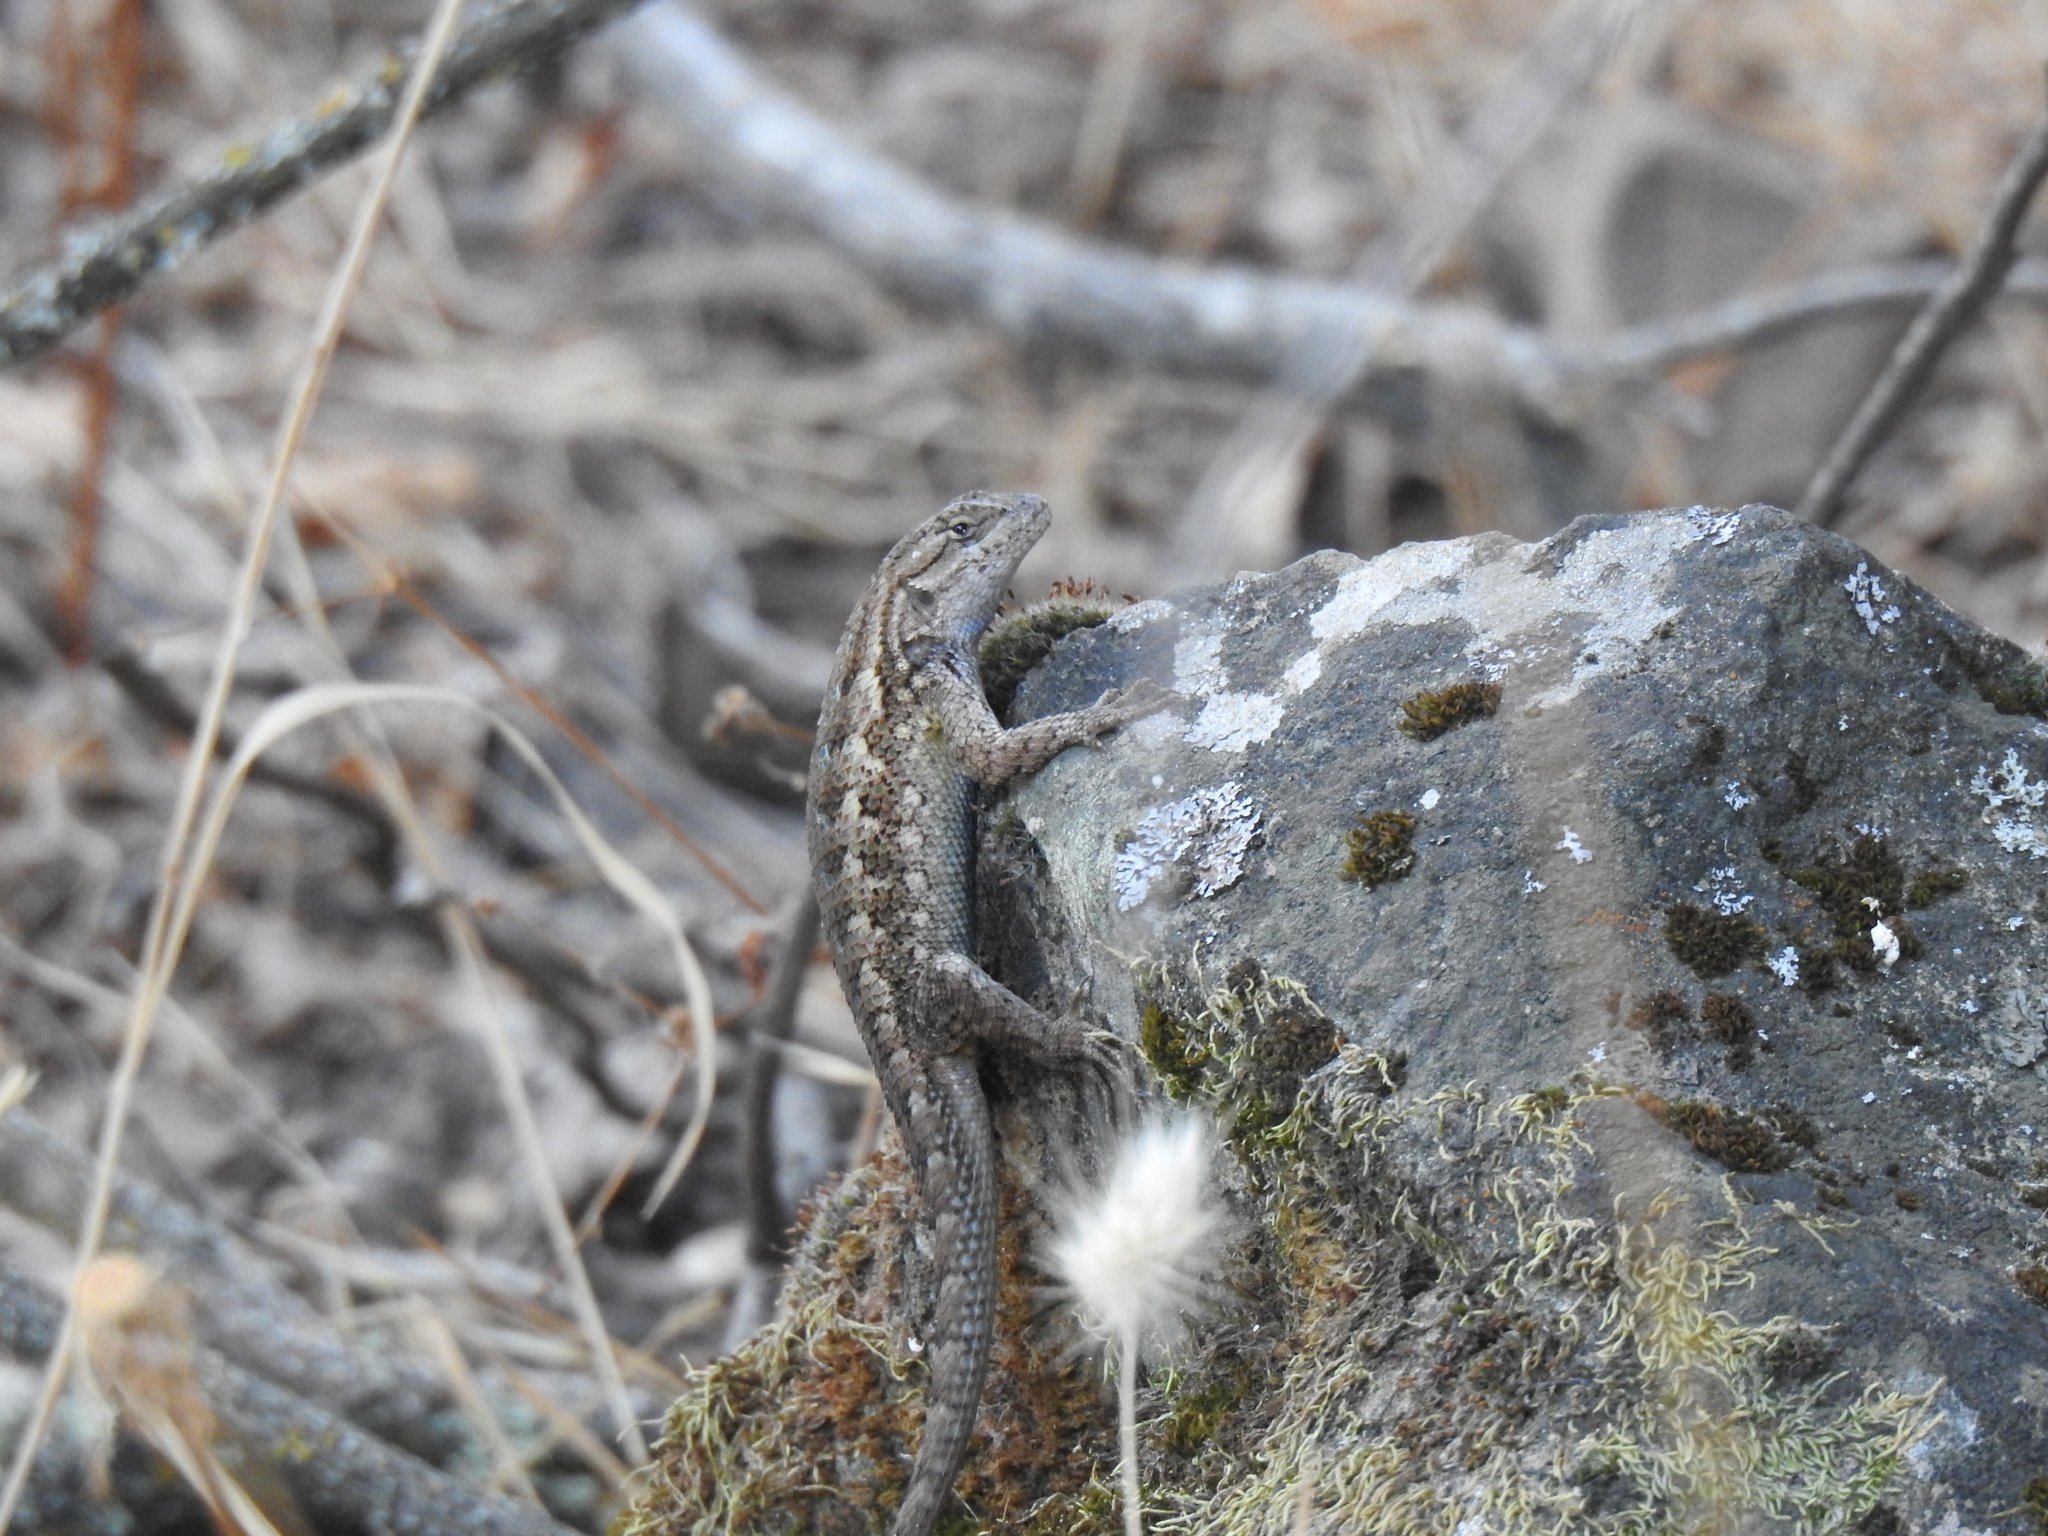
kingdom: Animalia
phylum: Chordata
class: Squamata
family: Phrynosomatidae
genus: Sceloporus
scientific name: Sceloporus occidentalis
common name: Western fence lizard
